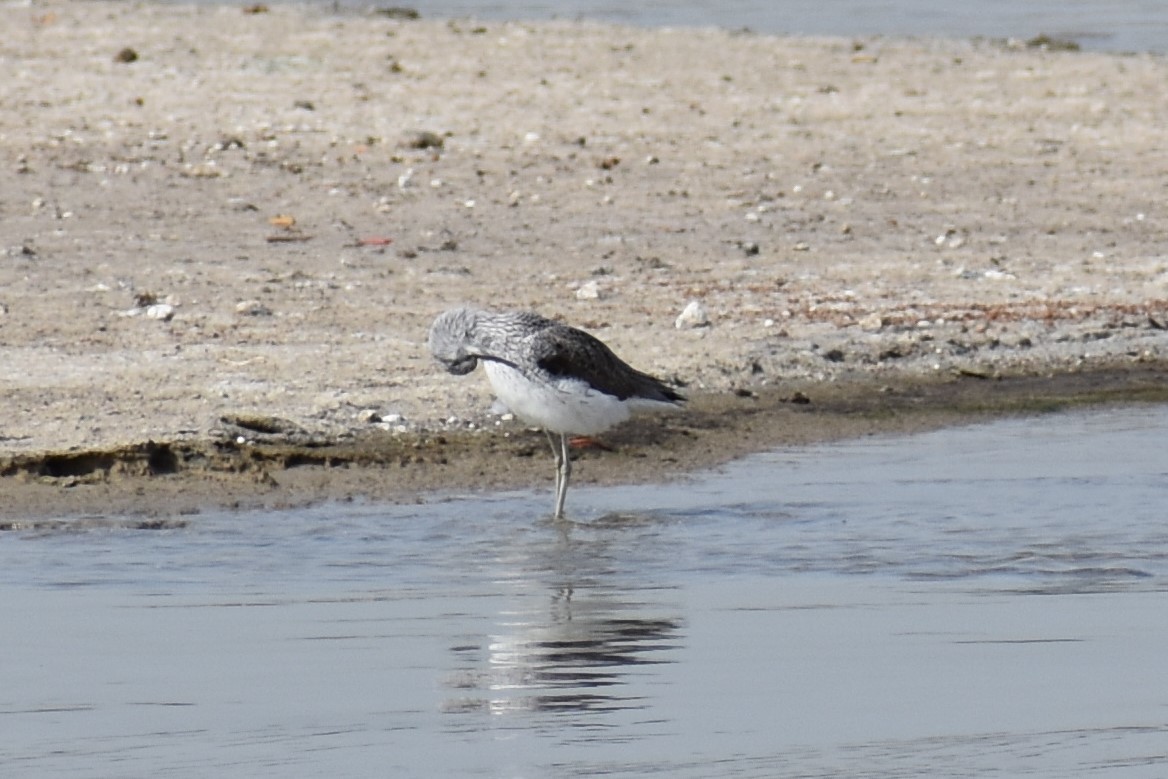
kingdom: Animalia
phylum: Chordata
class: Aves
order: Charadriiformes
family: Scolopacidae
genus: Tringa
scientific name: Tringa nebularia
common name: Common greenshank
